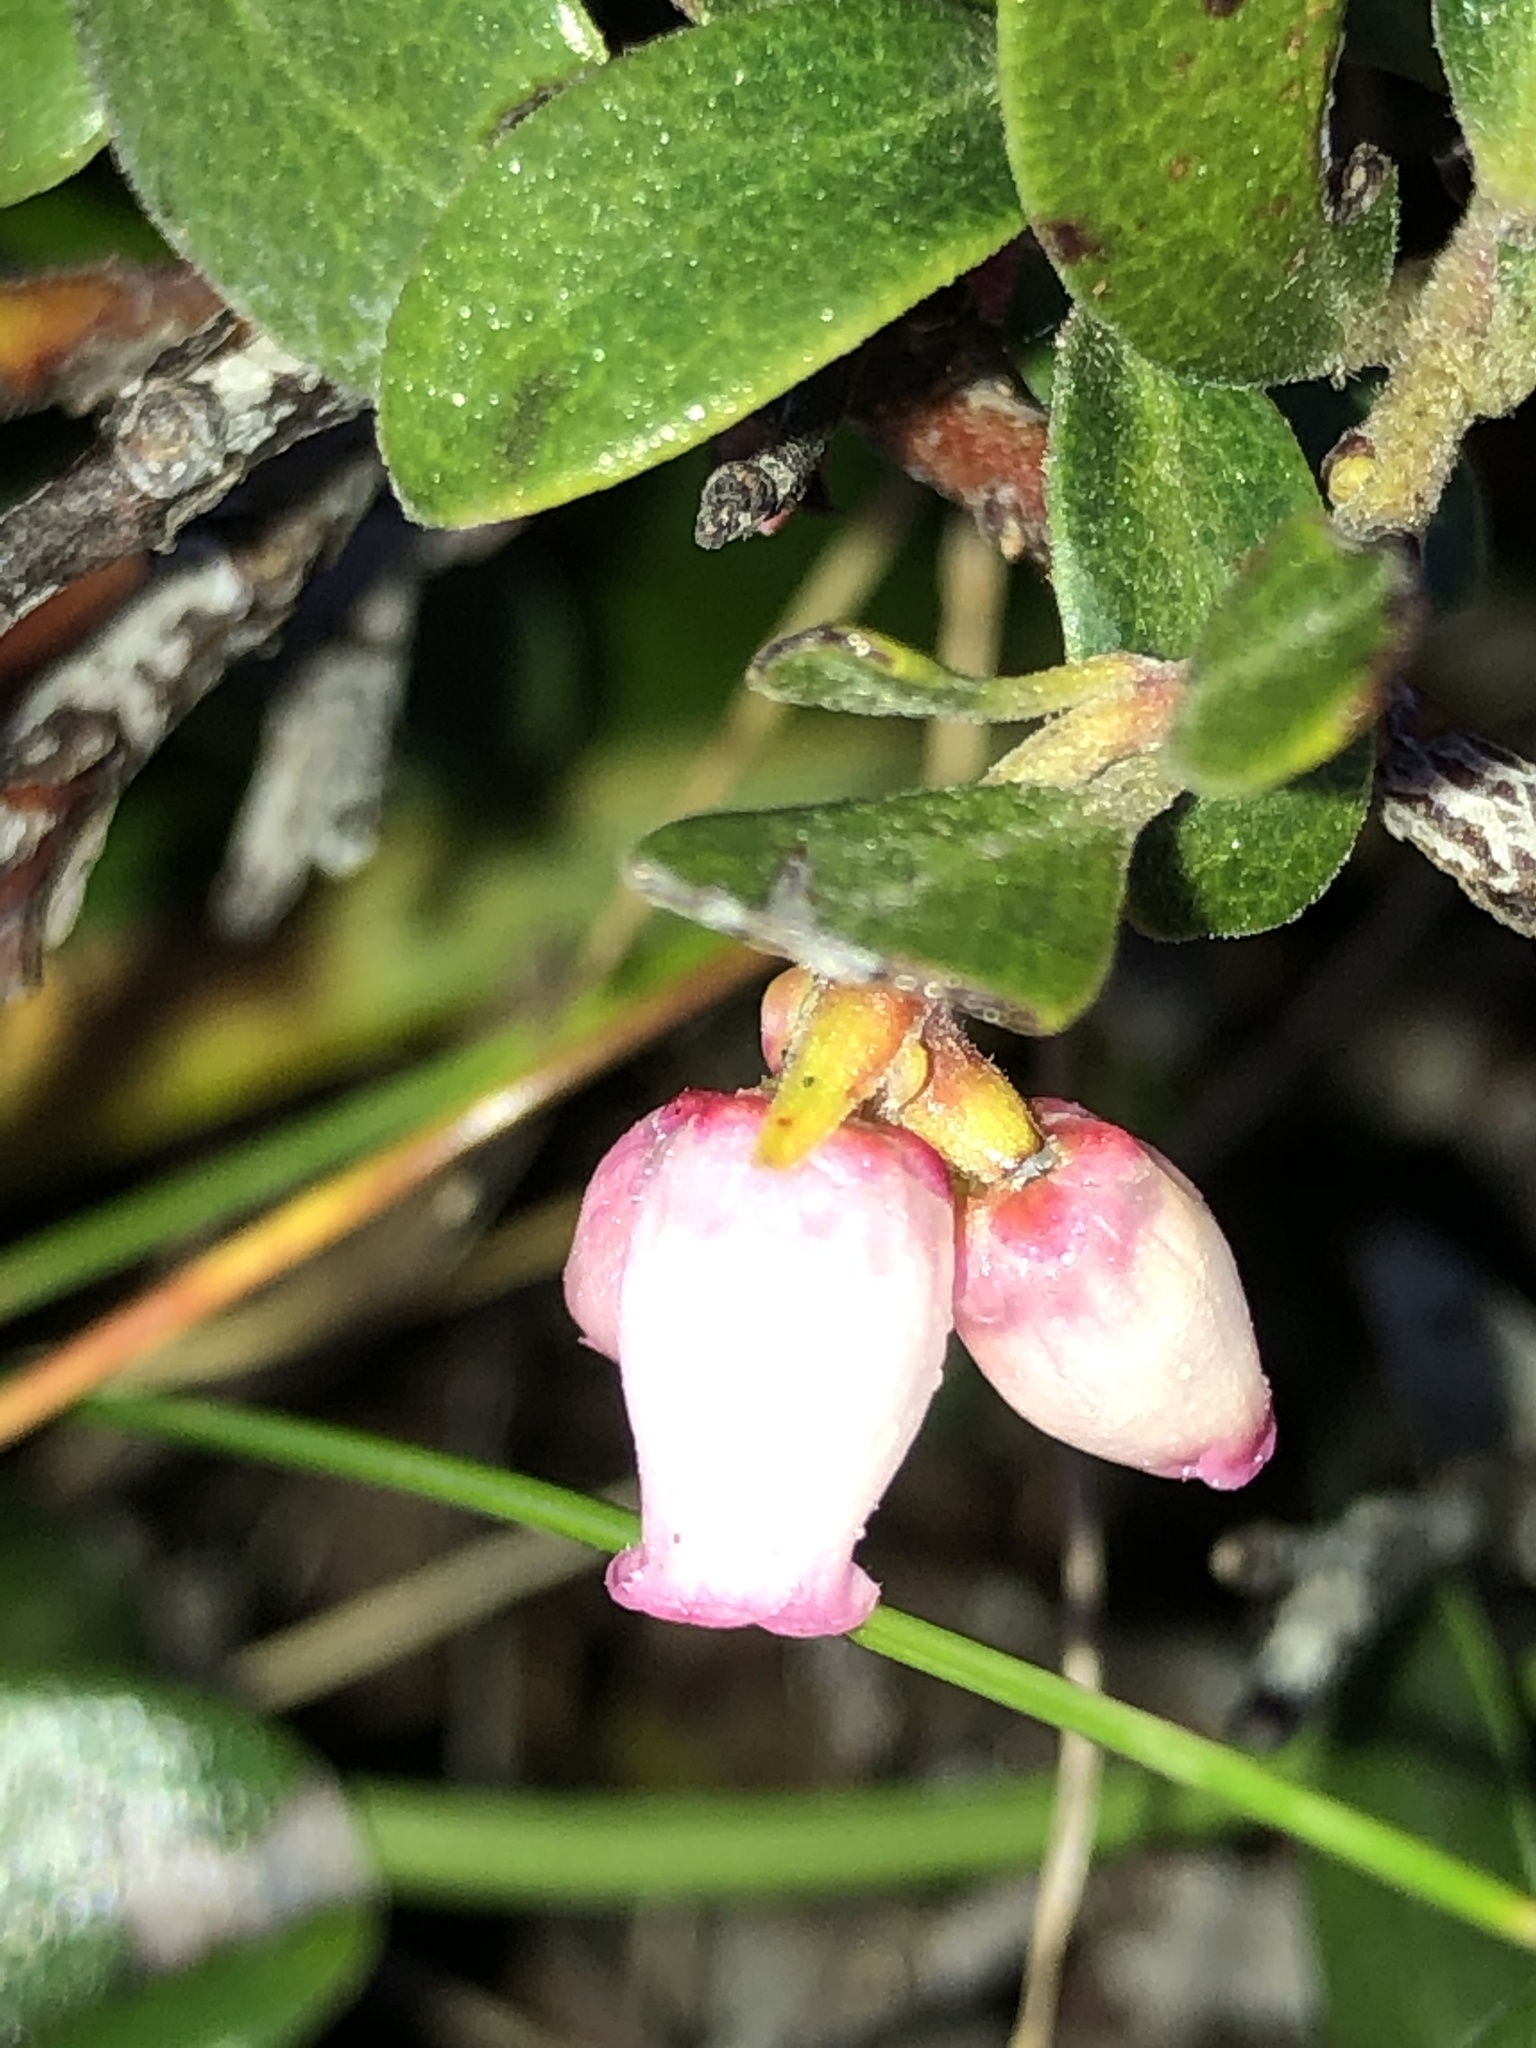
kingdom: Plantae
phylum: Tracheophyta
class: Magnoliopsida
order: Ericales
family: Ericaceae
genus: Arctostaphylos
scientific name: Arctostaphylos uva-ursi
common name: Bearberry
